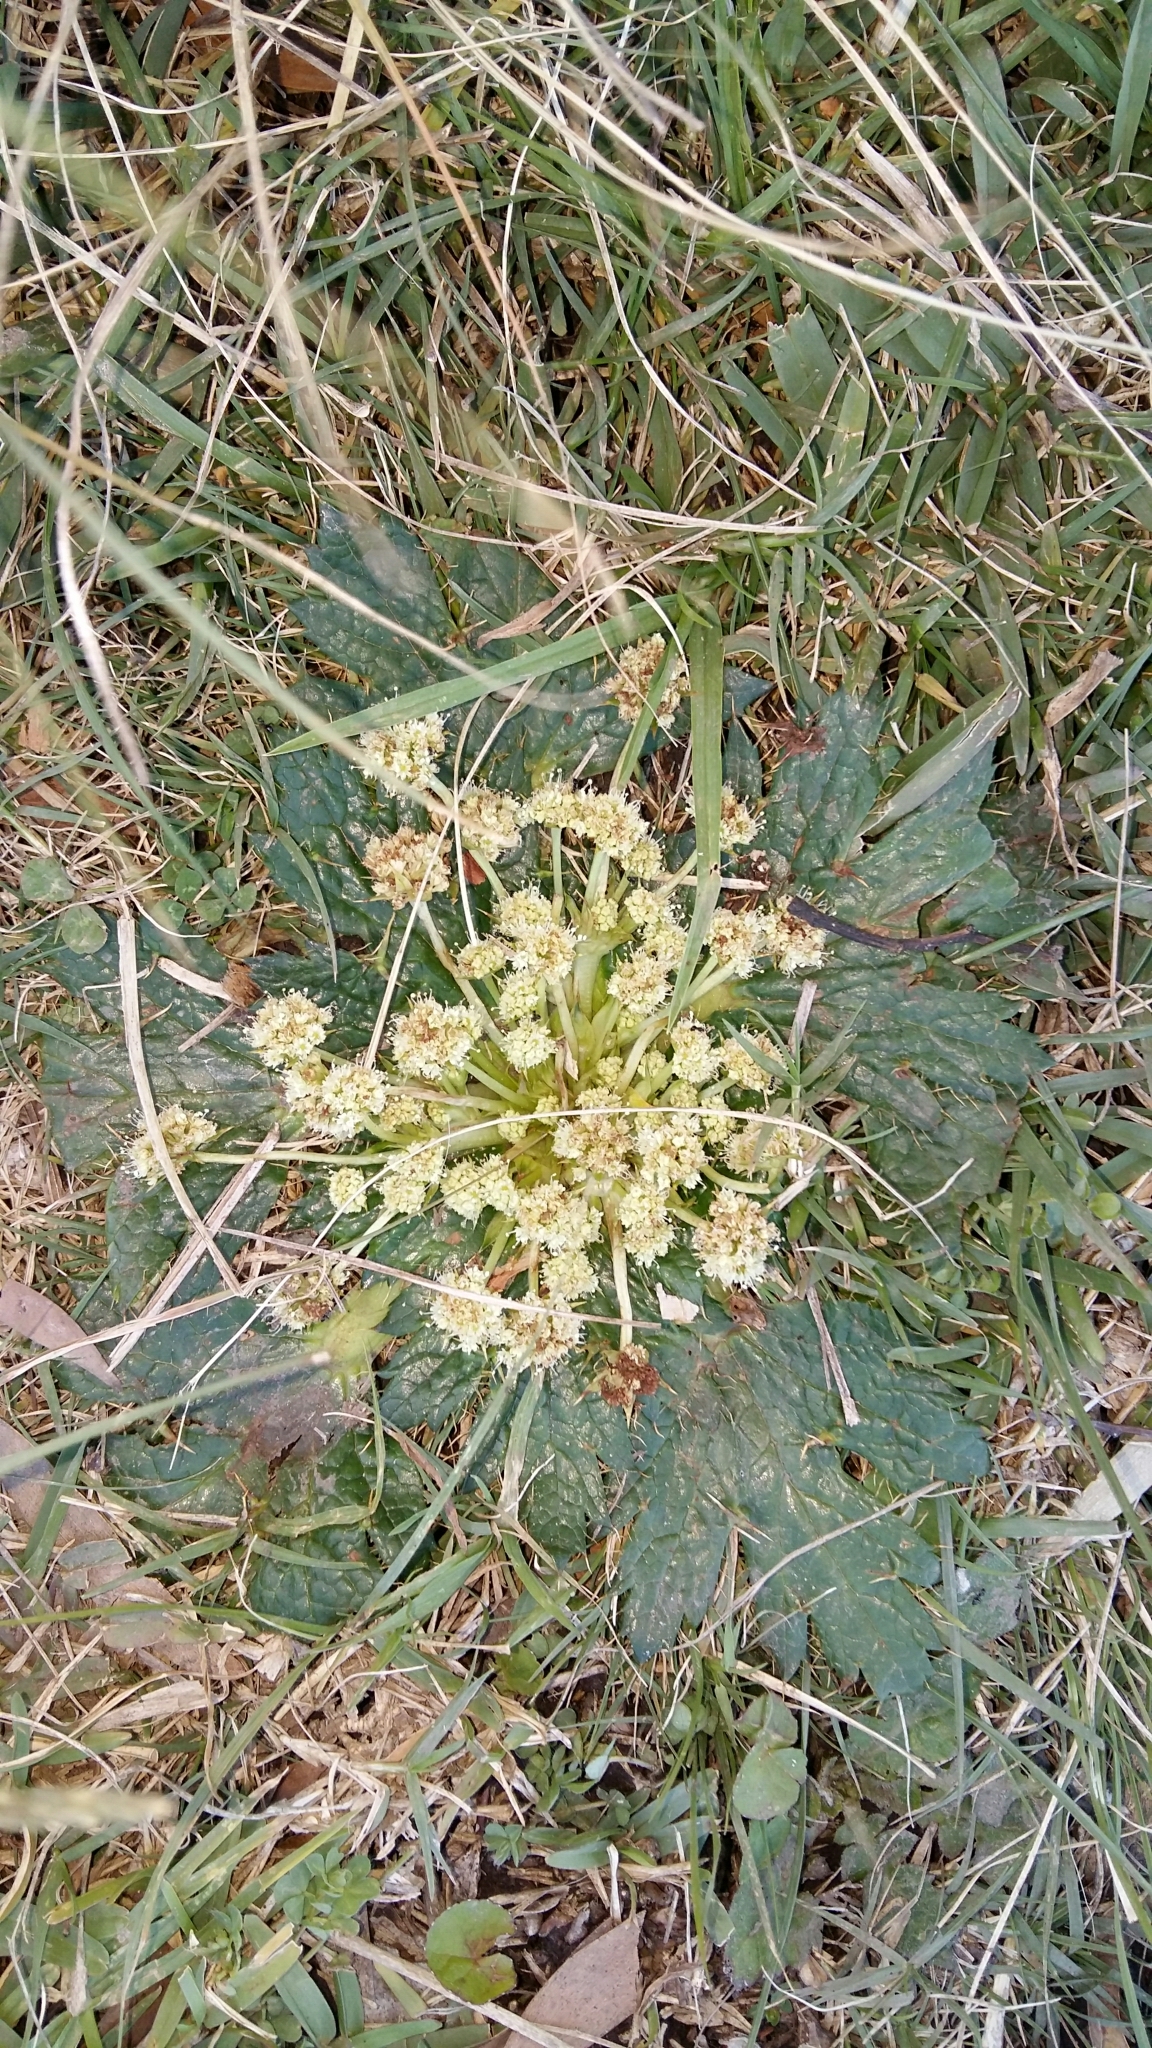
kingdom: Plantae
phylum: Tracheophyta
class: Magnoliopsida
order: Apiales
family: Apiaceae
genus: Arctopus
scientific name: Arctopus echinatus
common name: Platdoring
